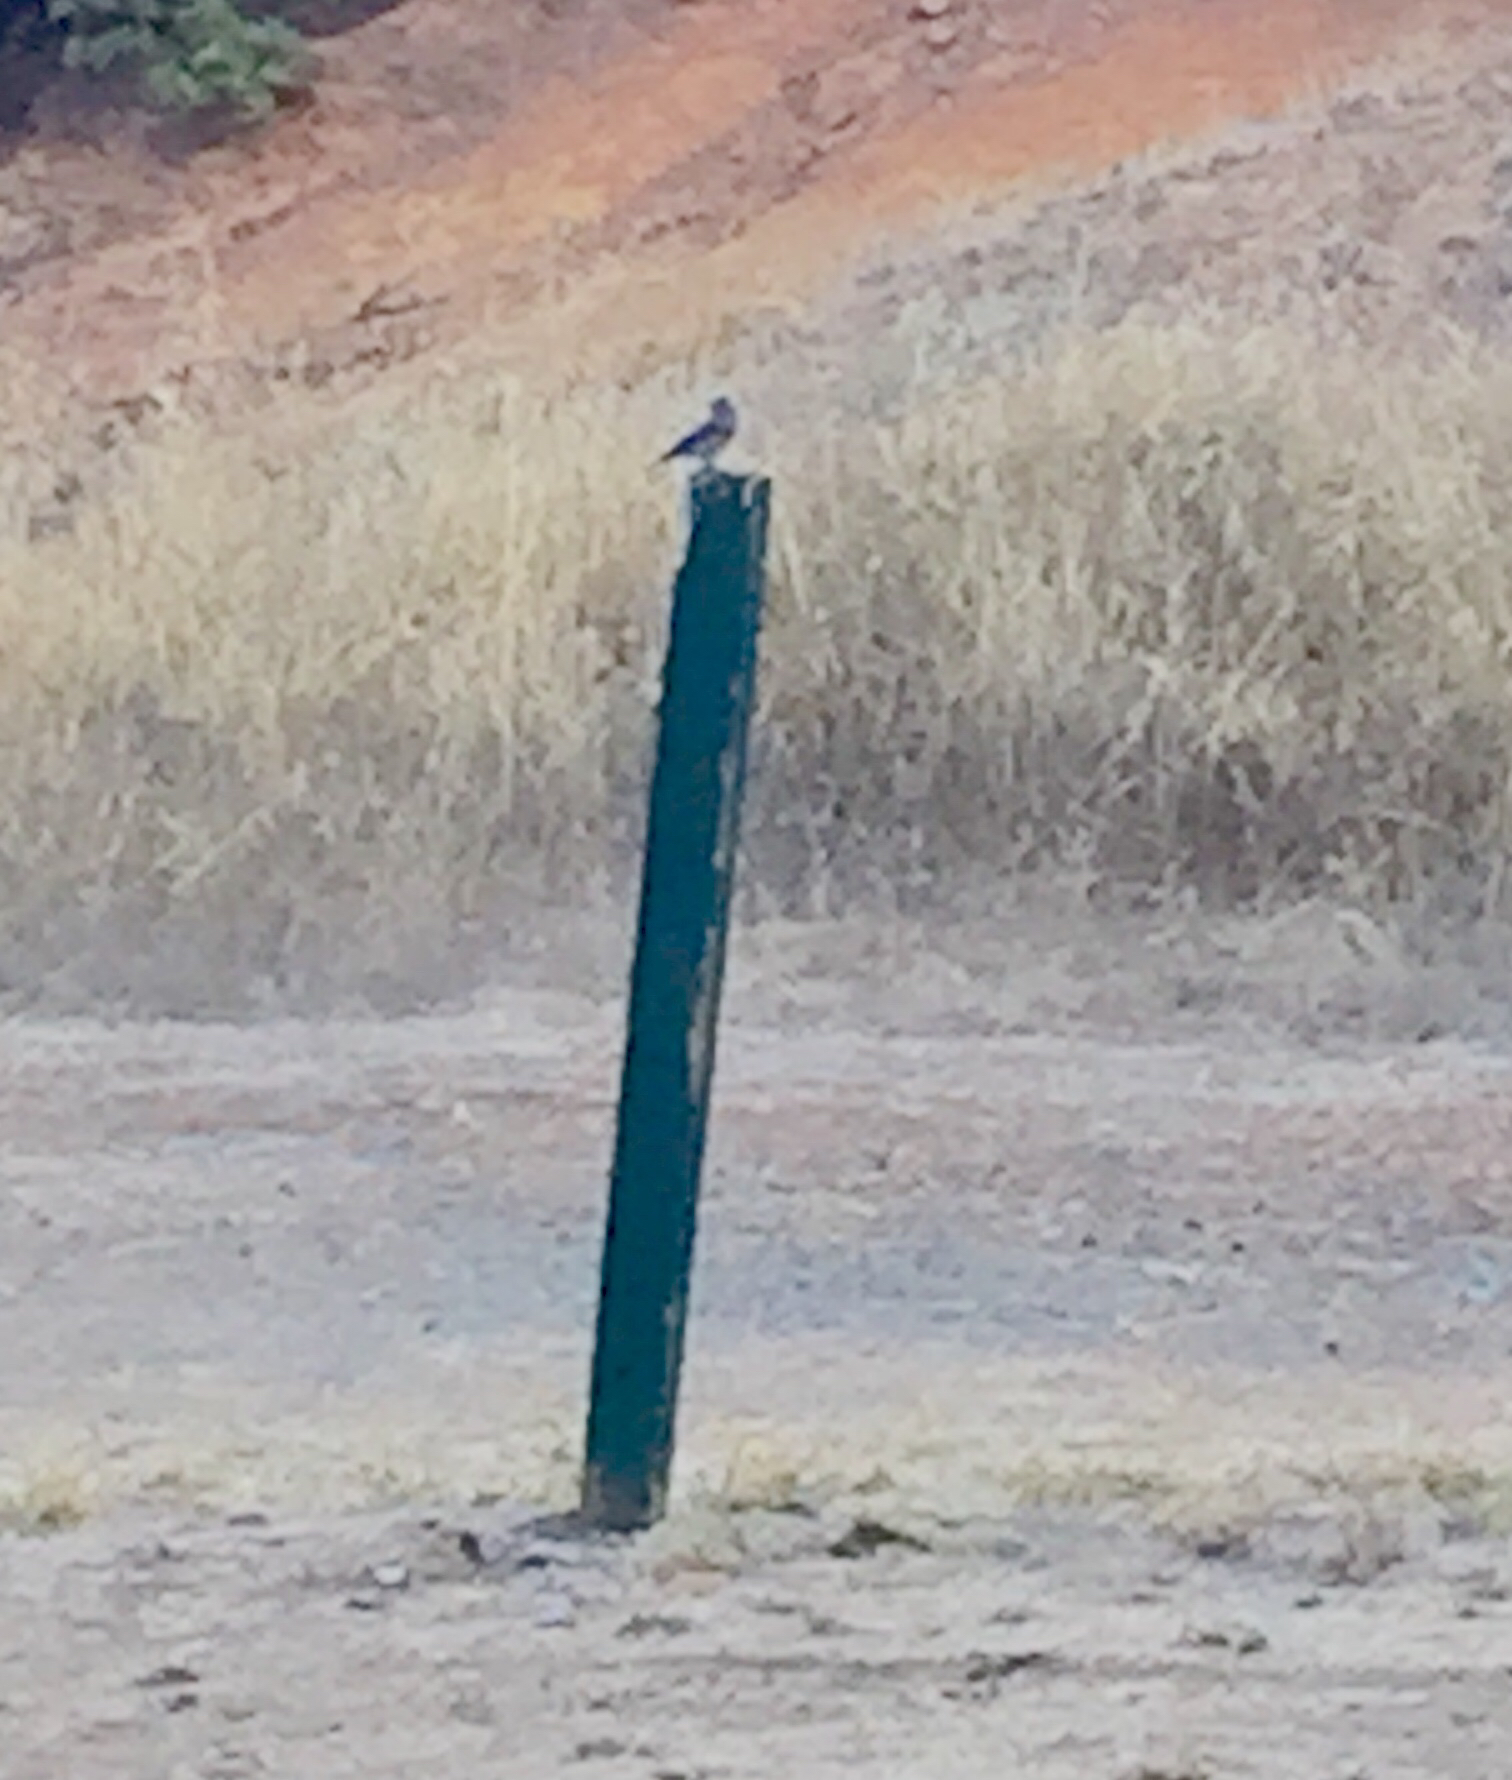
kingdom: Animalia
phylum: Chordata
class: Aves
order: Passeriformes
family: Turdidae
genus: Sialia
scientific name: Sialia mexicana
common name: Western bluebird
